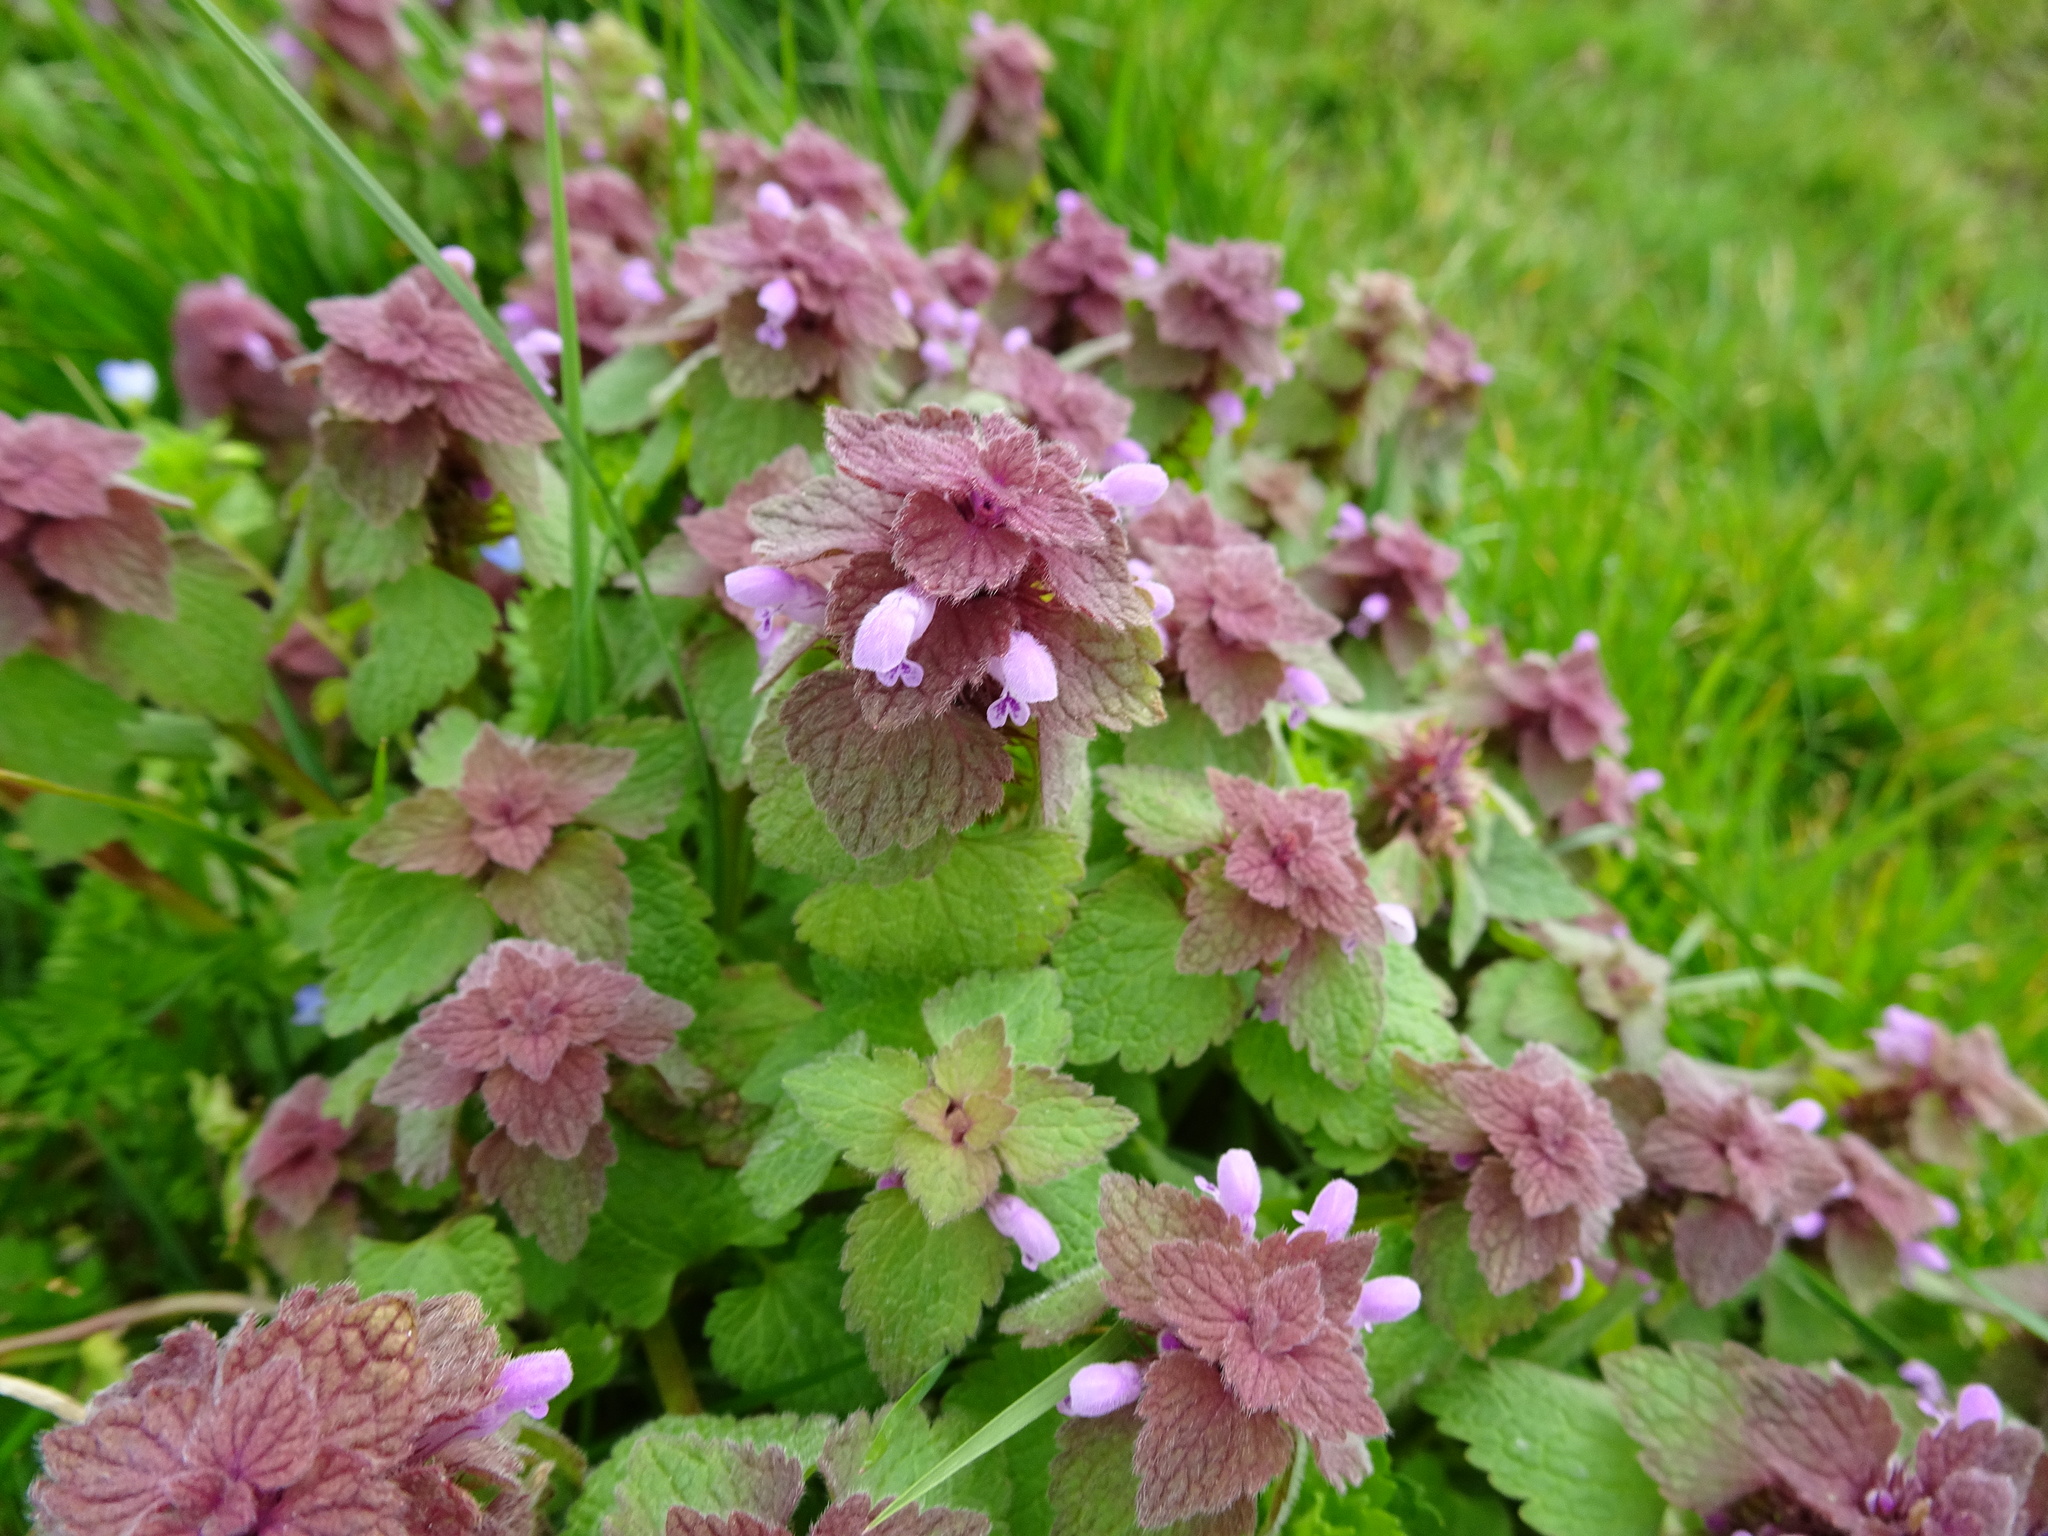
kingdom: Plantae
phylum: Tracheophyta
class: Magnoliopsida
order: Lamiales
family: Lamiaceae
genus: Lamium
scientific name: Lamium purpureum
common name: Red dead-nettle
